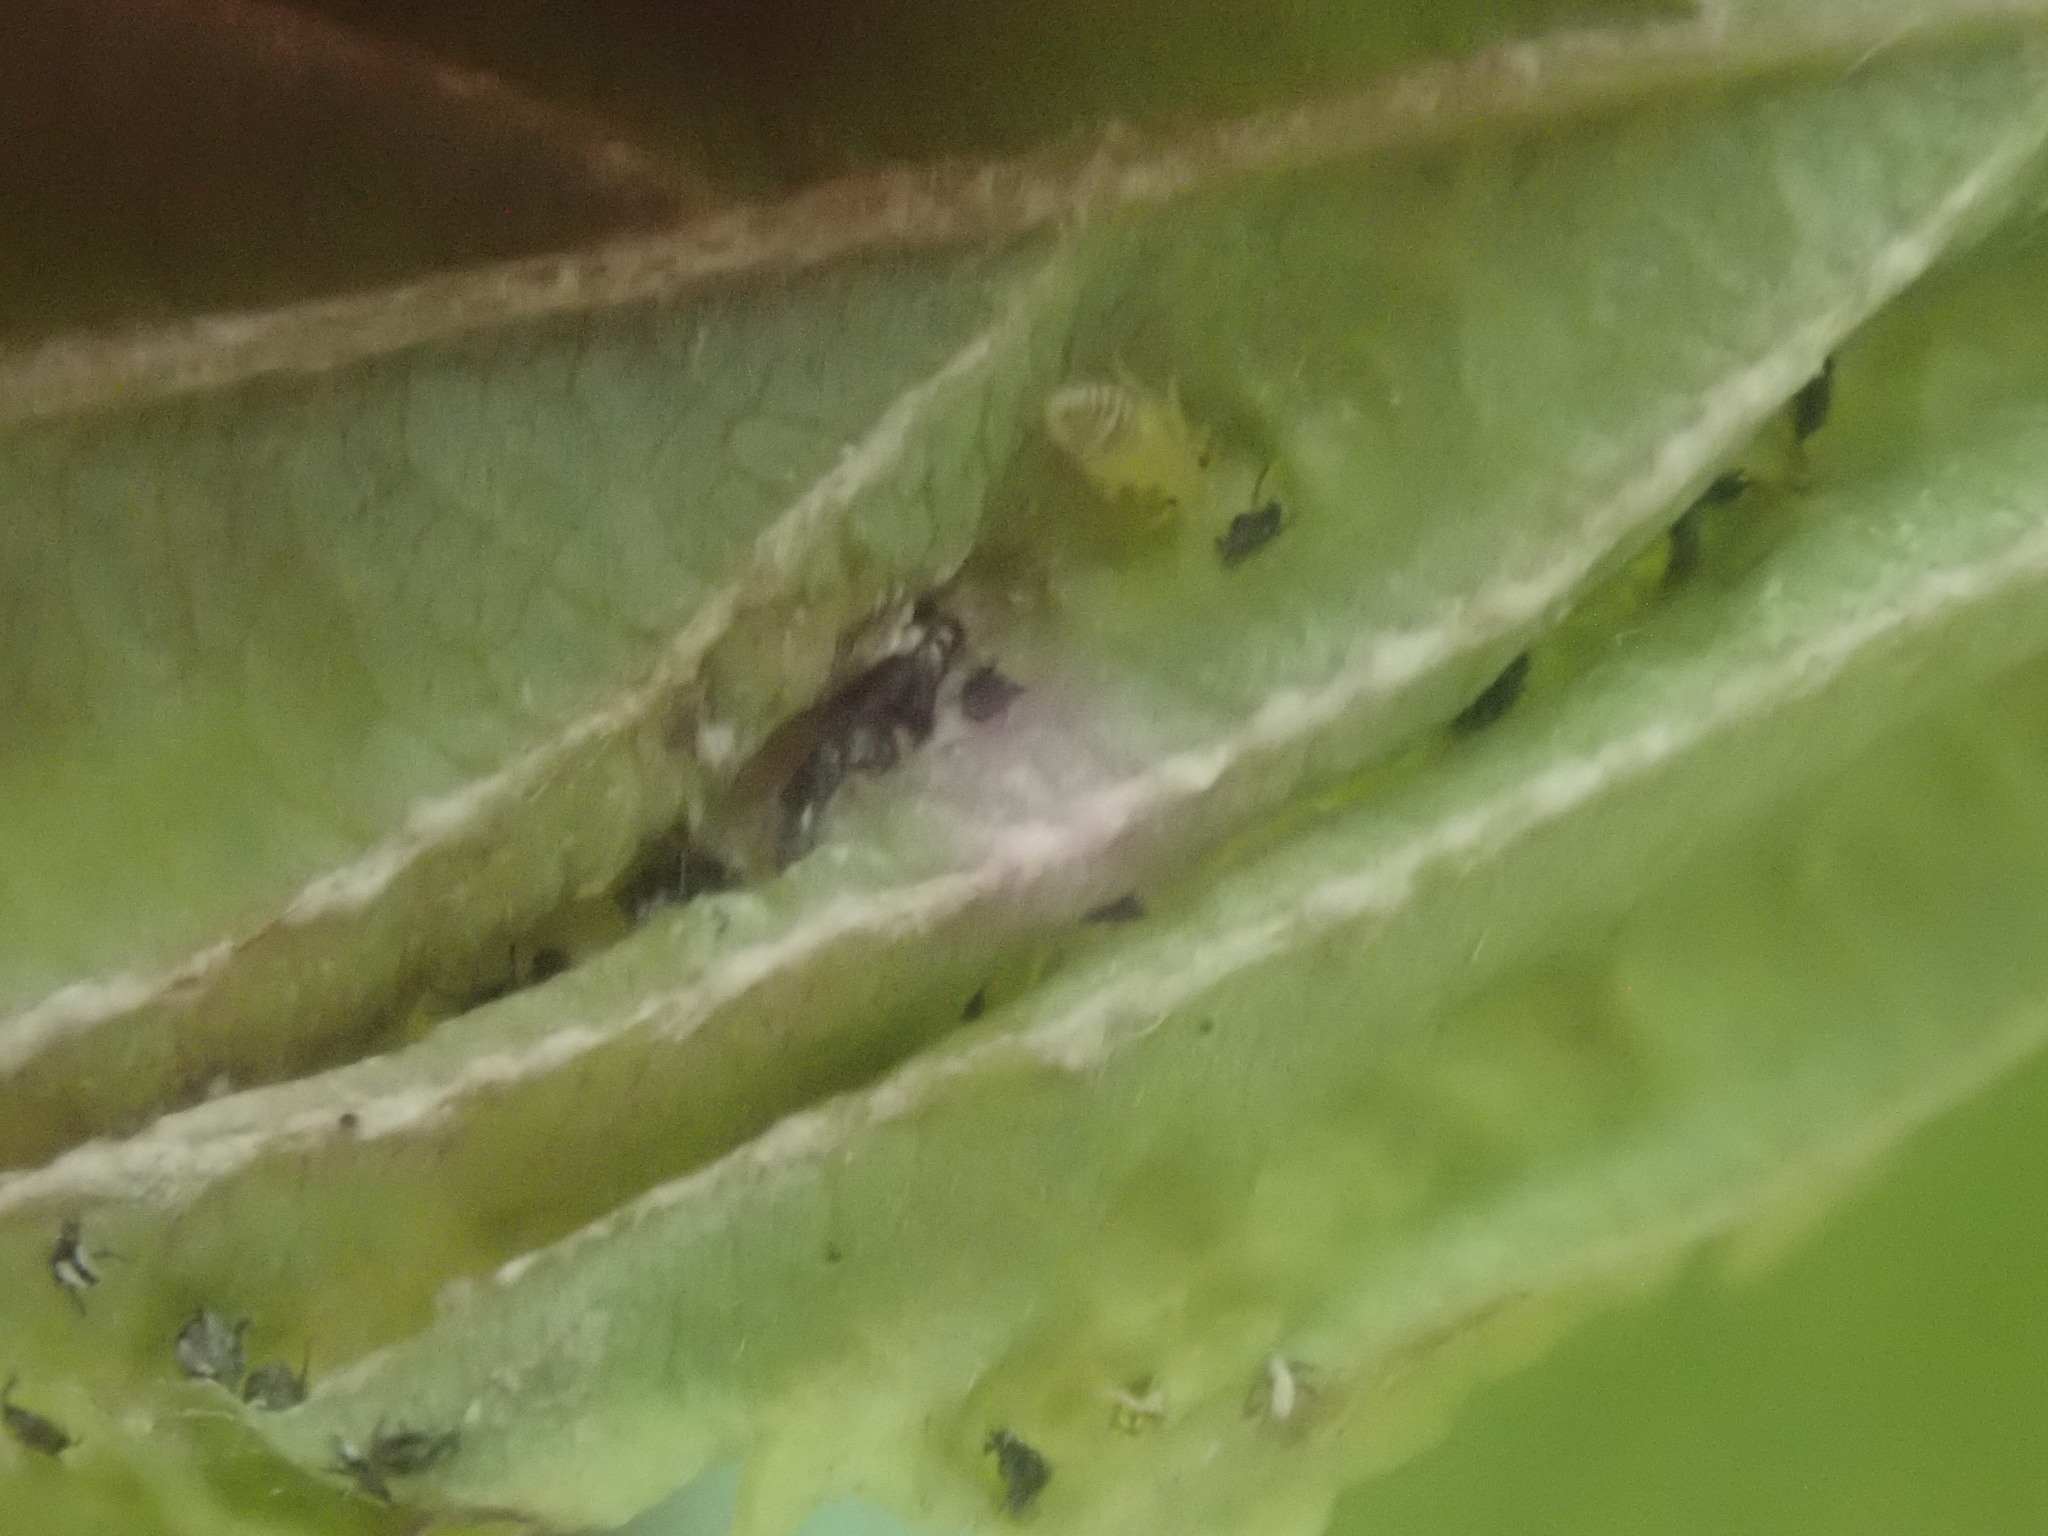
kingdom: Animalia
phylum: Arthropoda
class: Insecta
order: Hemiptera
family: Aphididae
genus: Hamamelistes
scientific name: Hamamelistes spinosus
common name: Witch hazel gall aphid
